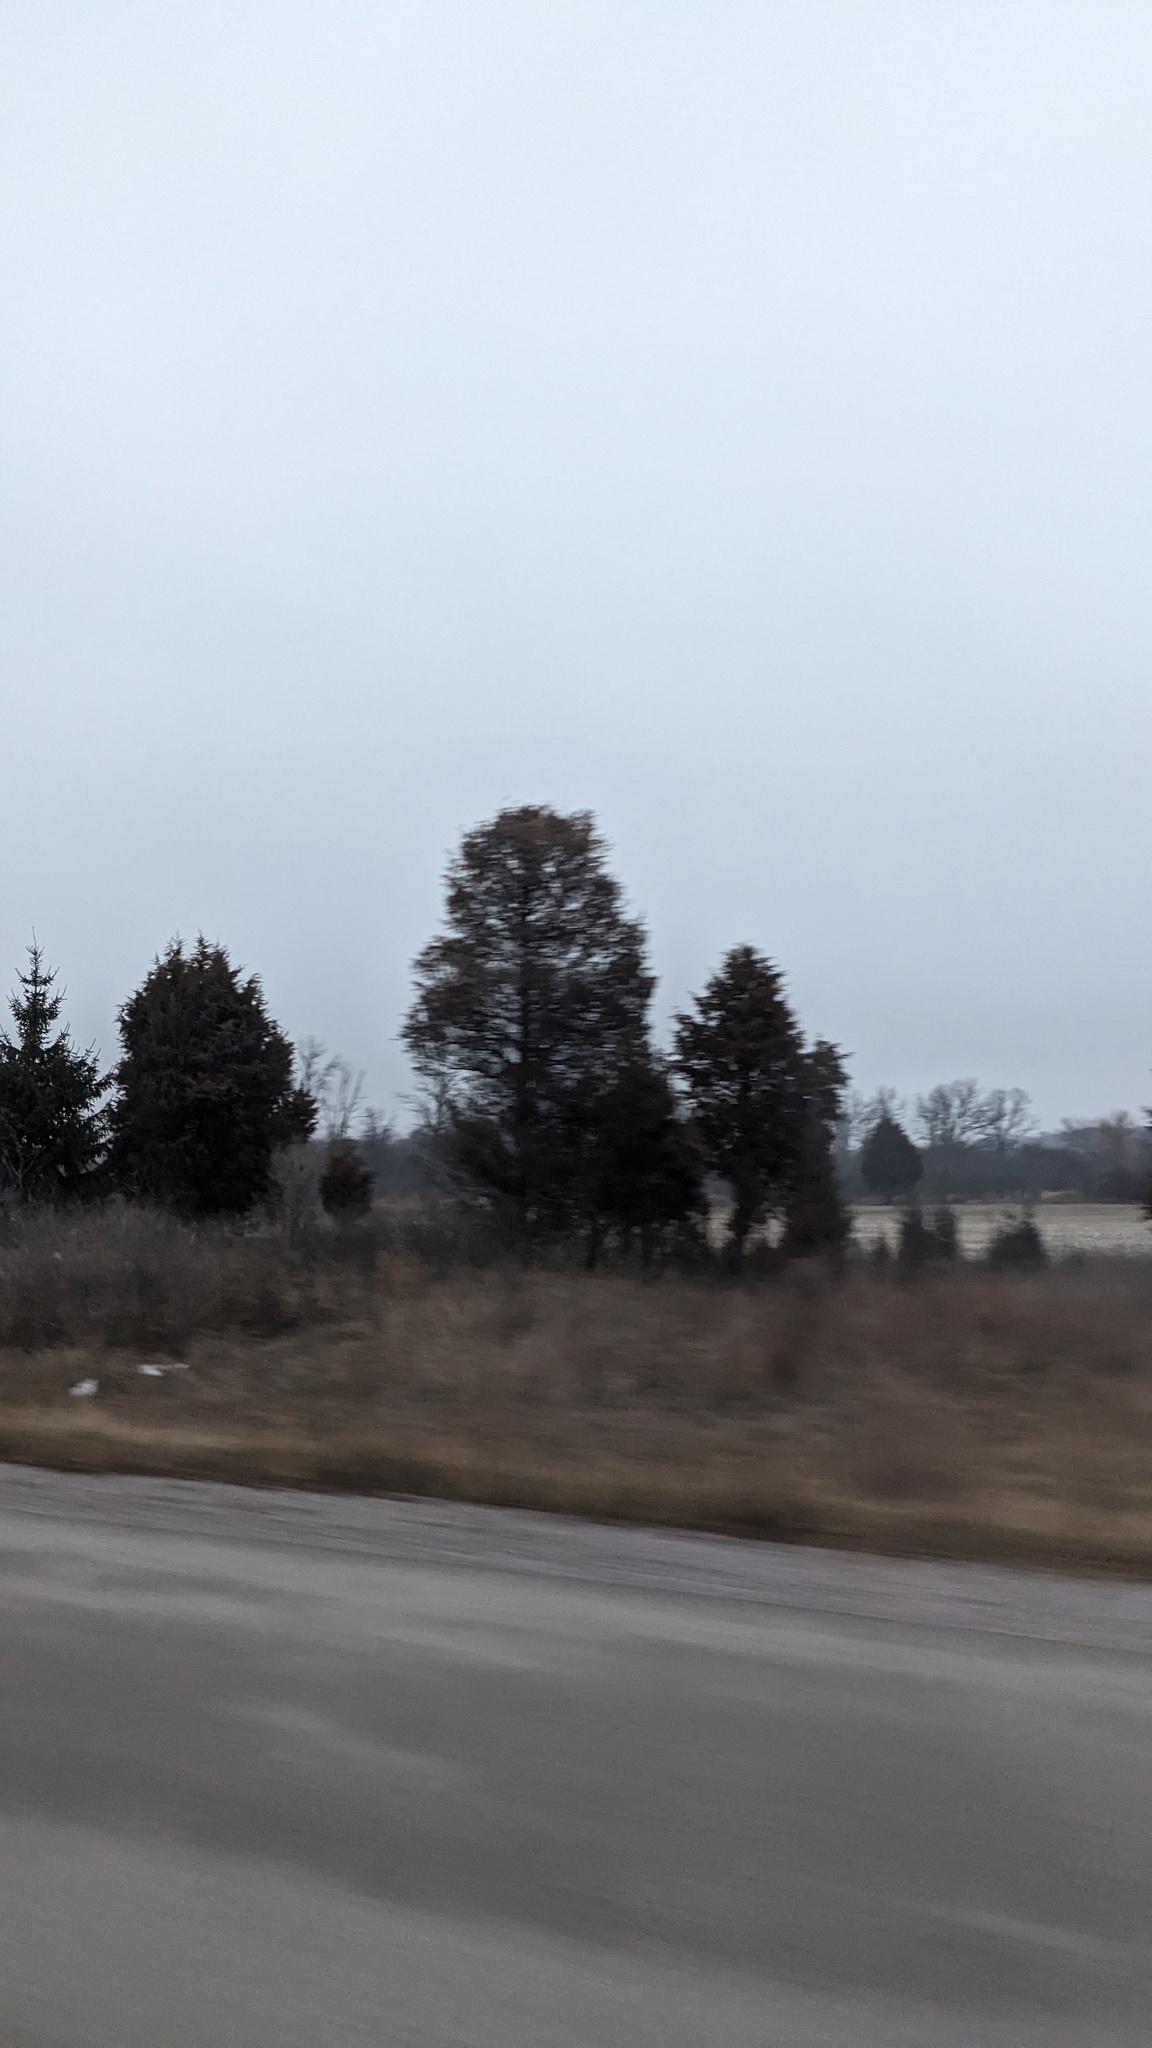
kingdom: Plantae
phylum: Tracheophyta
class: Pinopsida
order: Pinales
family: Cupressaceae
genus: Juniperus
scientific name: Juniperus virginiana
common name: Red juniper
